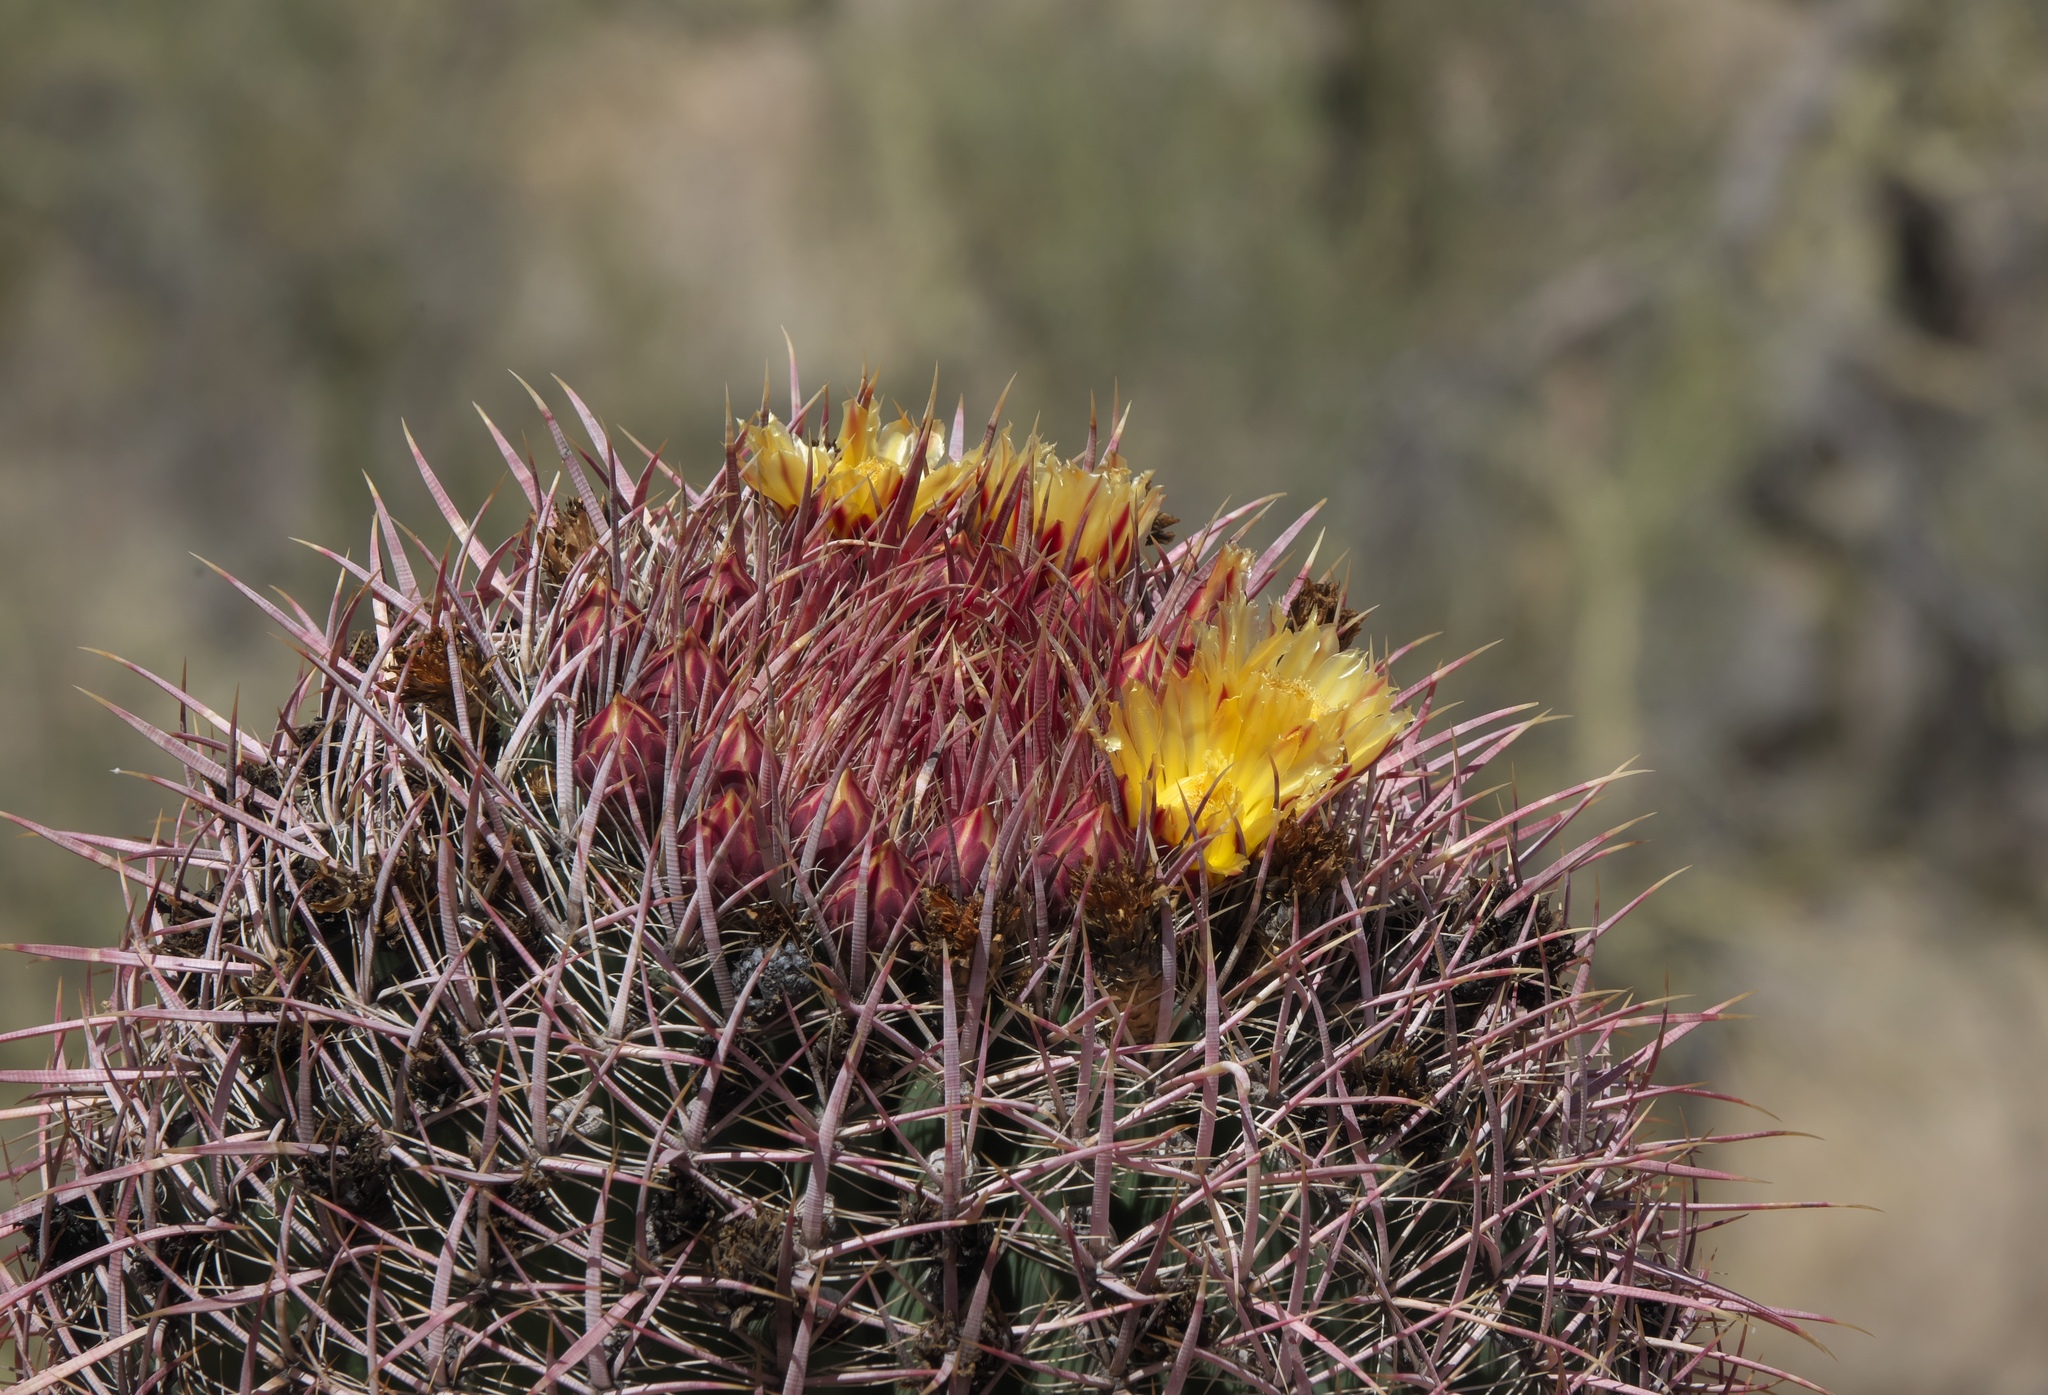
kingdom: Plantae
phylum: Tracheophyta
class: Magnoliopsida
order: Caryophyllales
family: Cactaceae
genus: Ferocactus
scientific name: Ferocactus cylindraceus
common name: California barrel cactus
